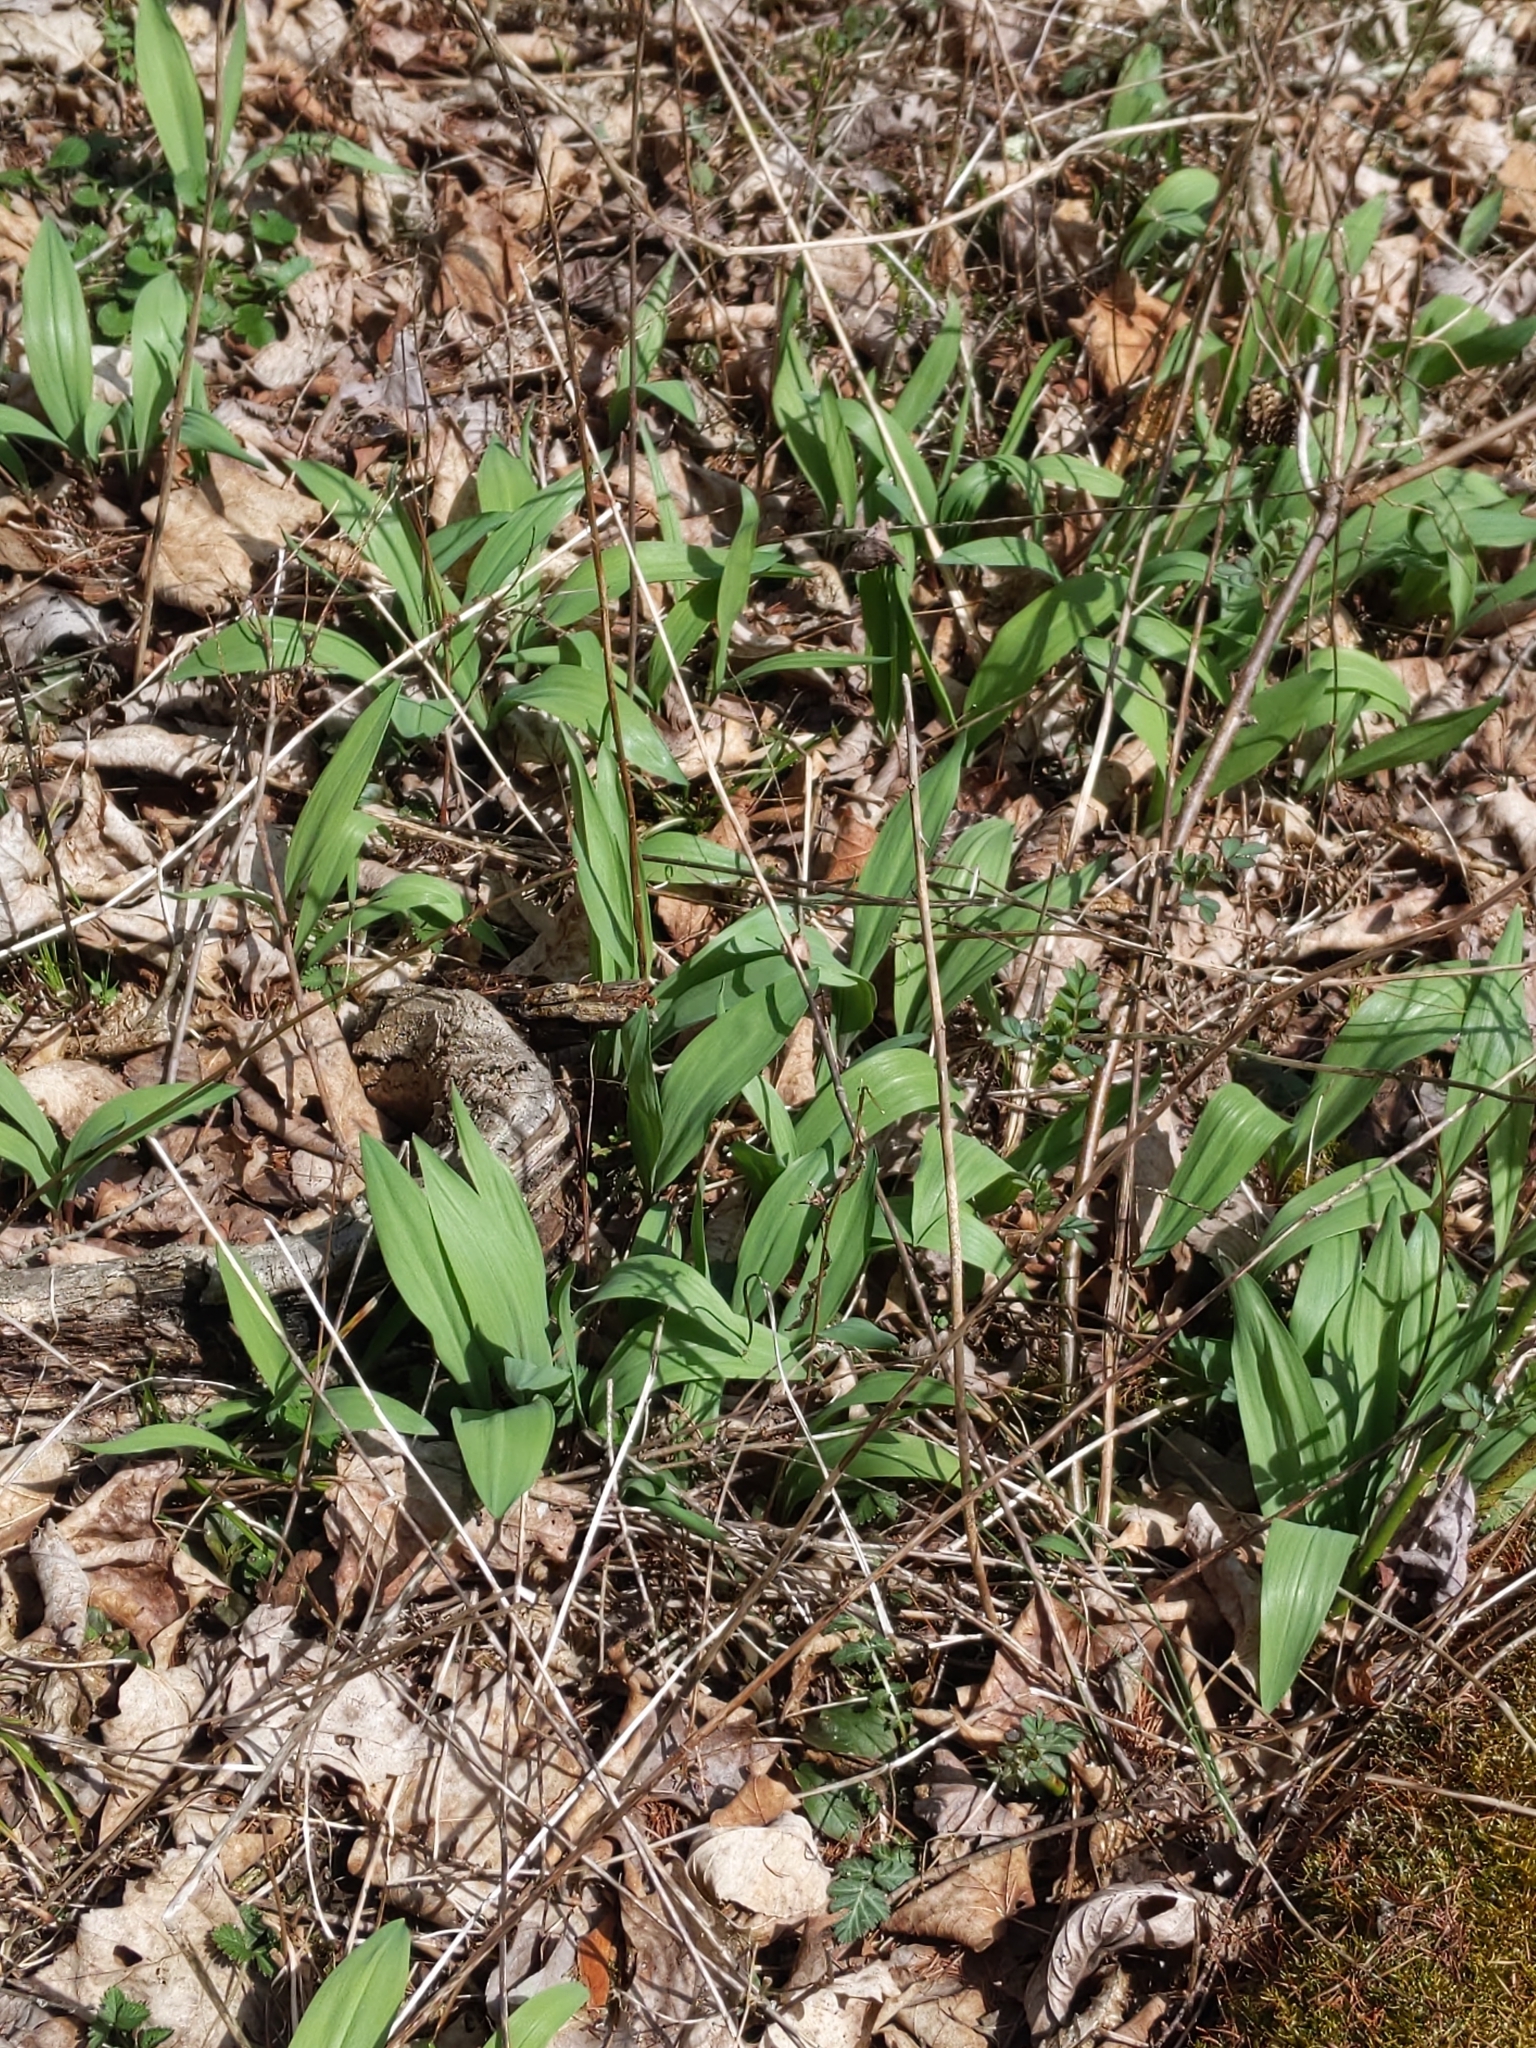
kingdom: Plantae
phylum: Tracheophyta
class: Liliopsida
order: Asparagales
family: Amaryllidaceae
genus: Allium
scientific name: Allium tricoccum
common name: Ramp
